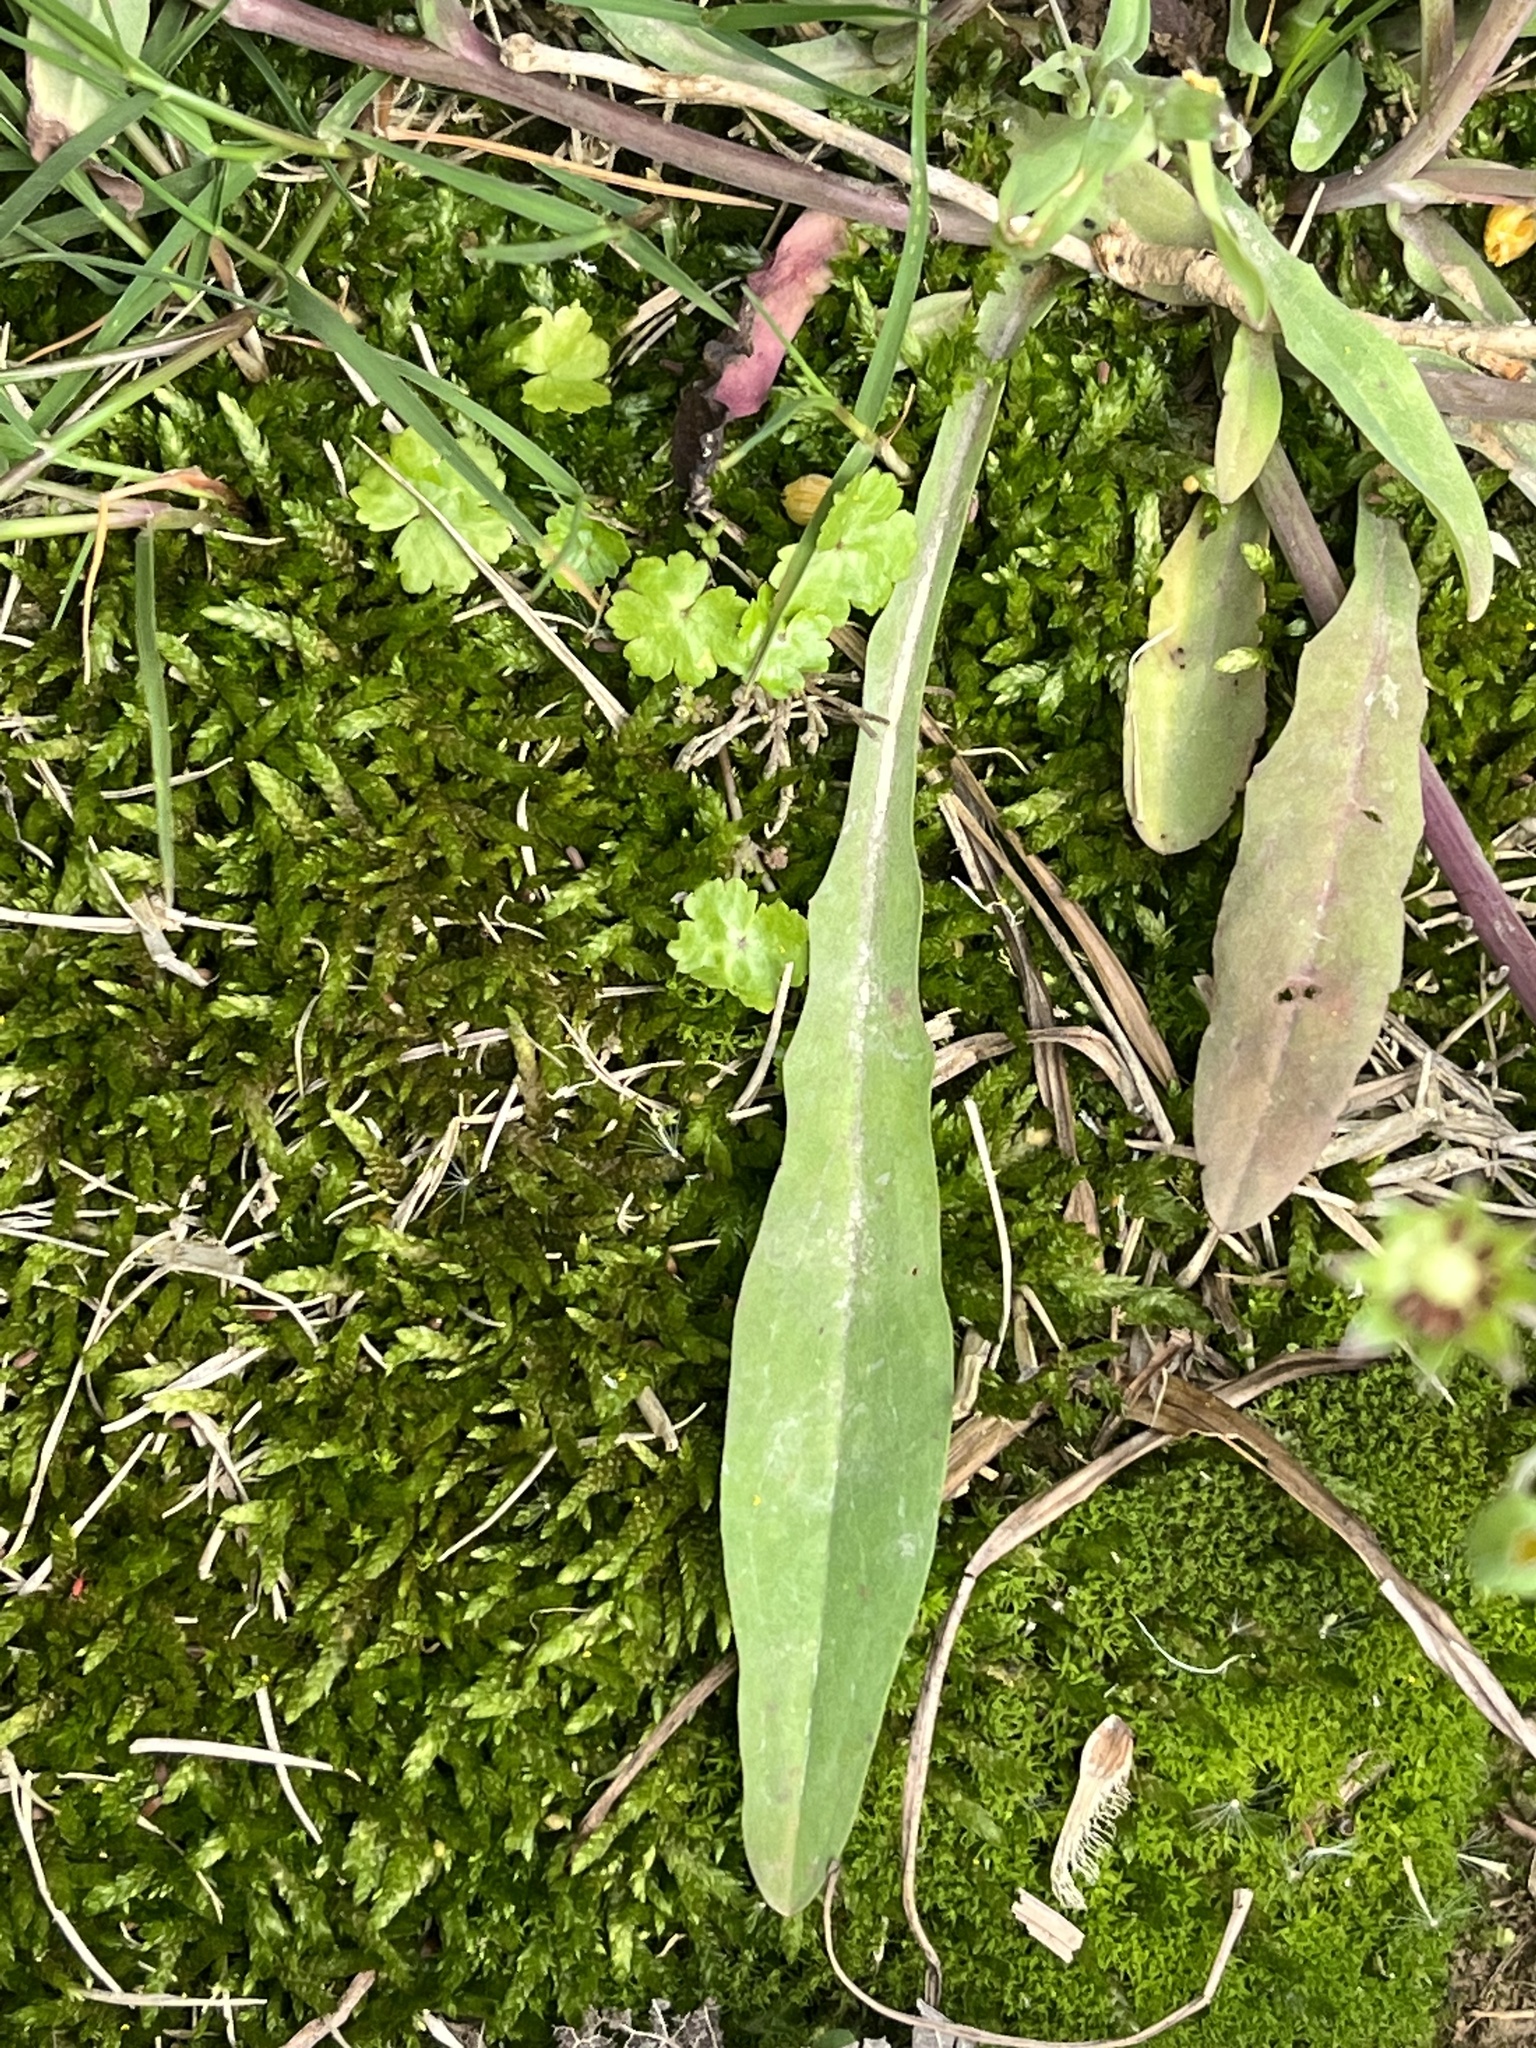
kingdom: Plantae
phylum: Tracheophyta
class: Magnoliopsida
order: Asterales
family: Asteraceae
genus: Krigia
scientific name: Krigia cespitosa
